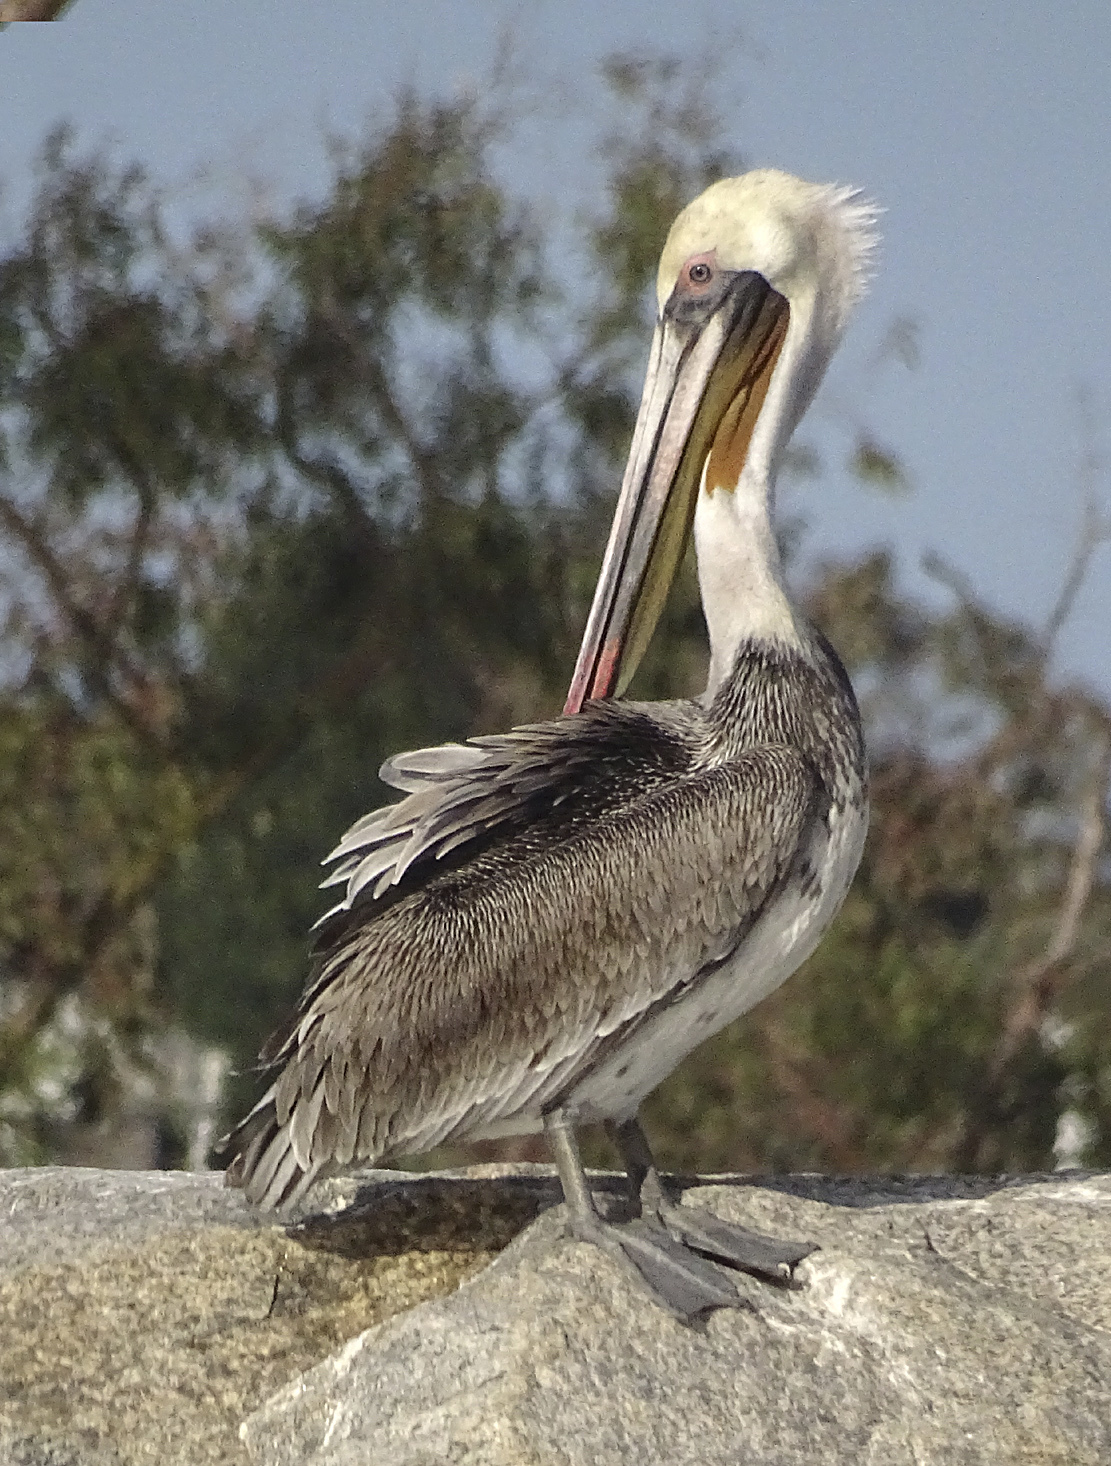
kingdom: Animalia
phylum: Chordata
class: Aves
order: Pelecaniformes
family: Pelecanidae
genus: Pelecanus
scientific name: Pelecanus occidentalis
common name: Brown pelican
